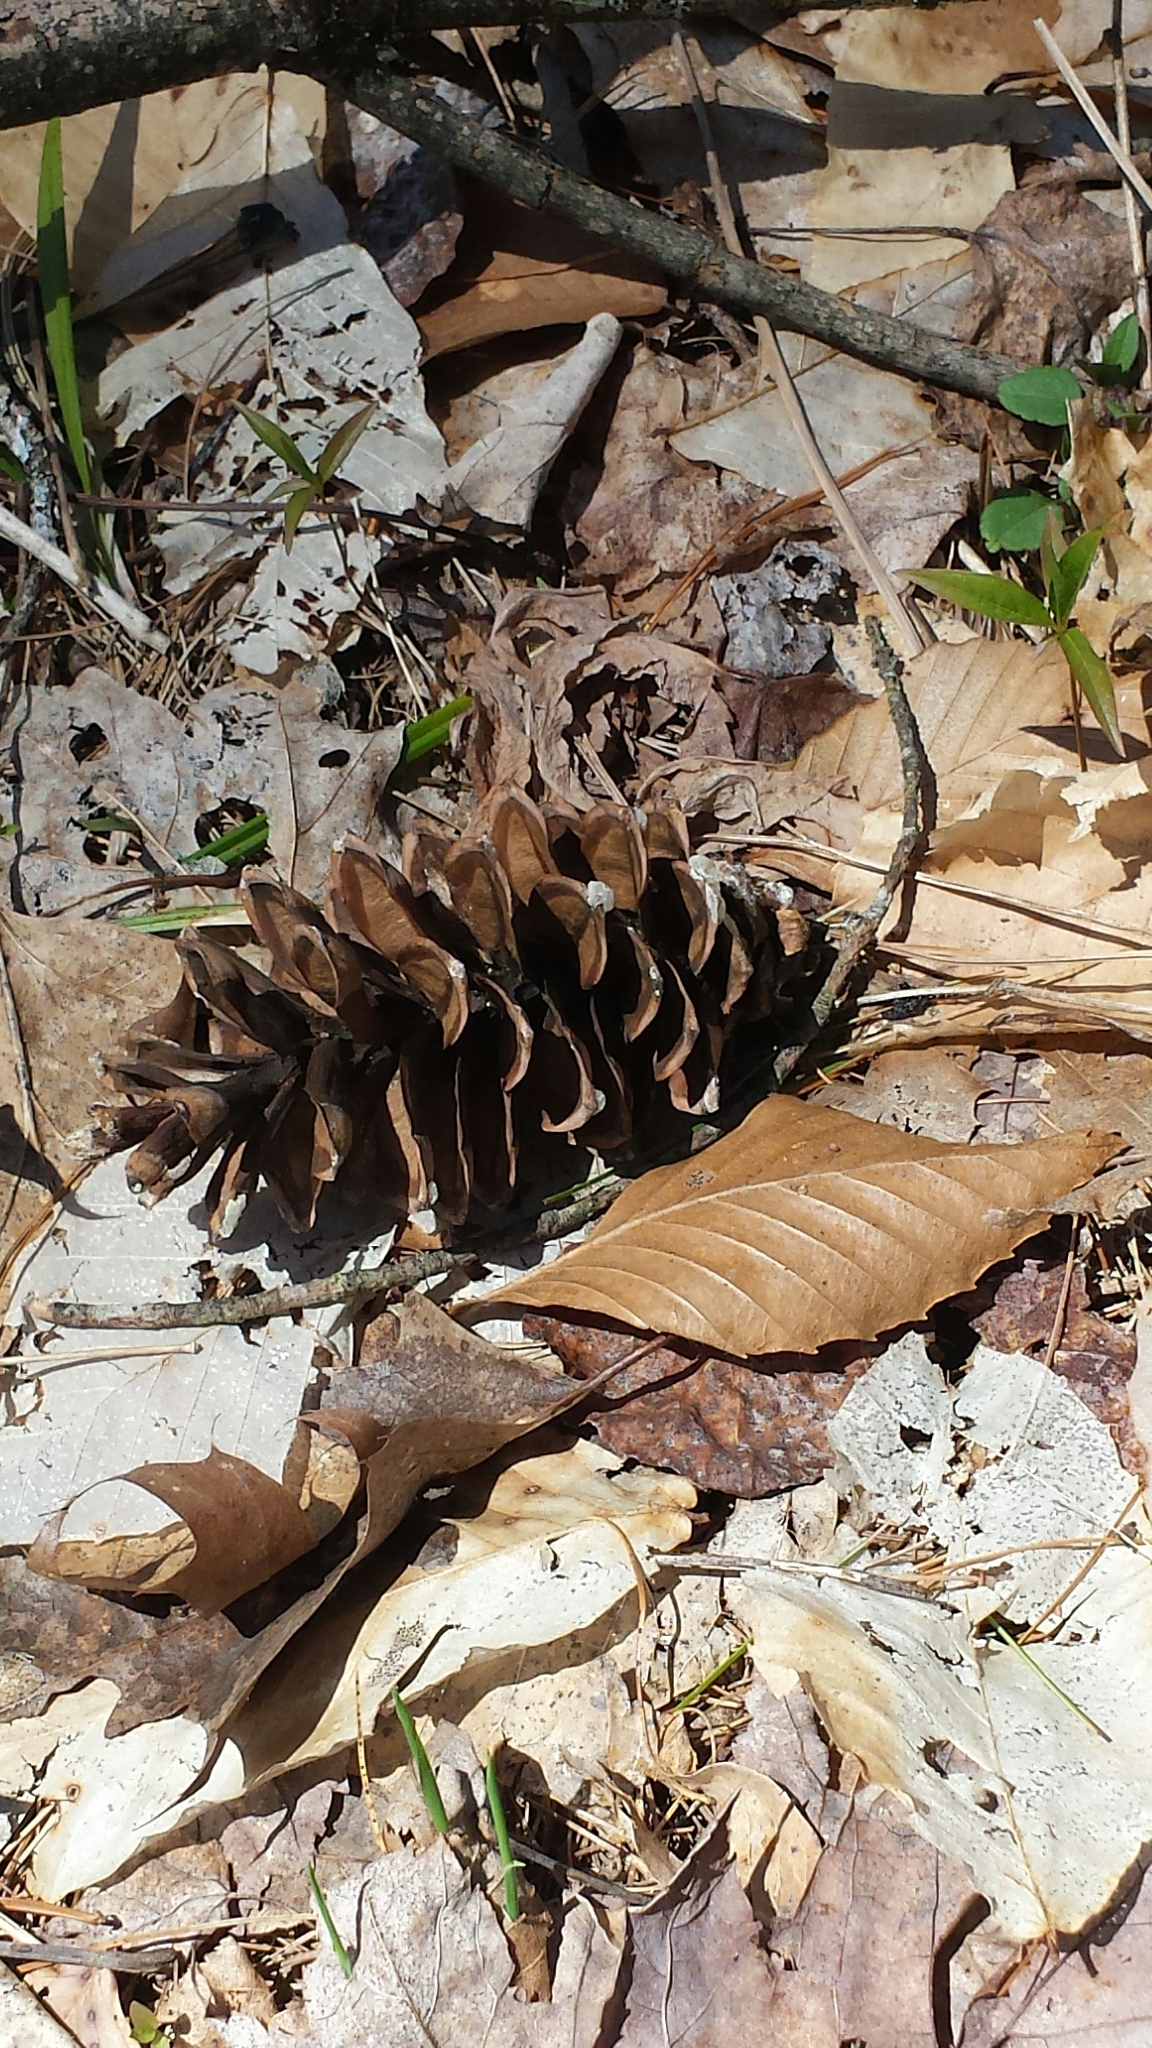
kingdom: Plantae
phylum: Tracheophyta
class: Pinopsida
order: Pinales
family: Pinaceae
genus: Pinus
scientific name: Pinus strobus
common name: Weymouth pine
